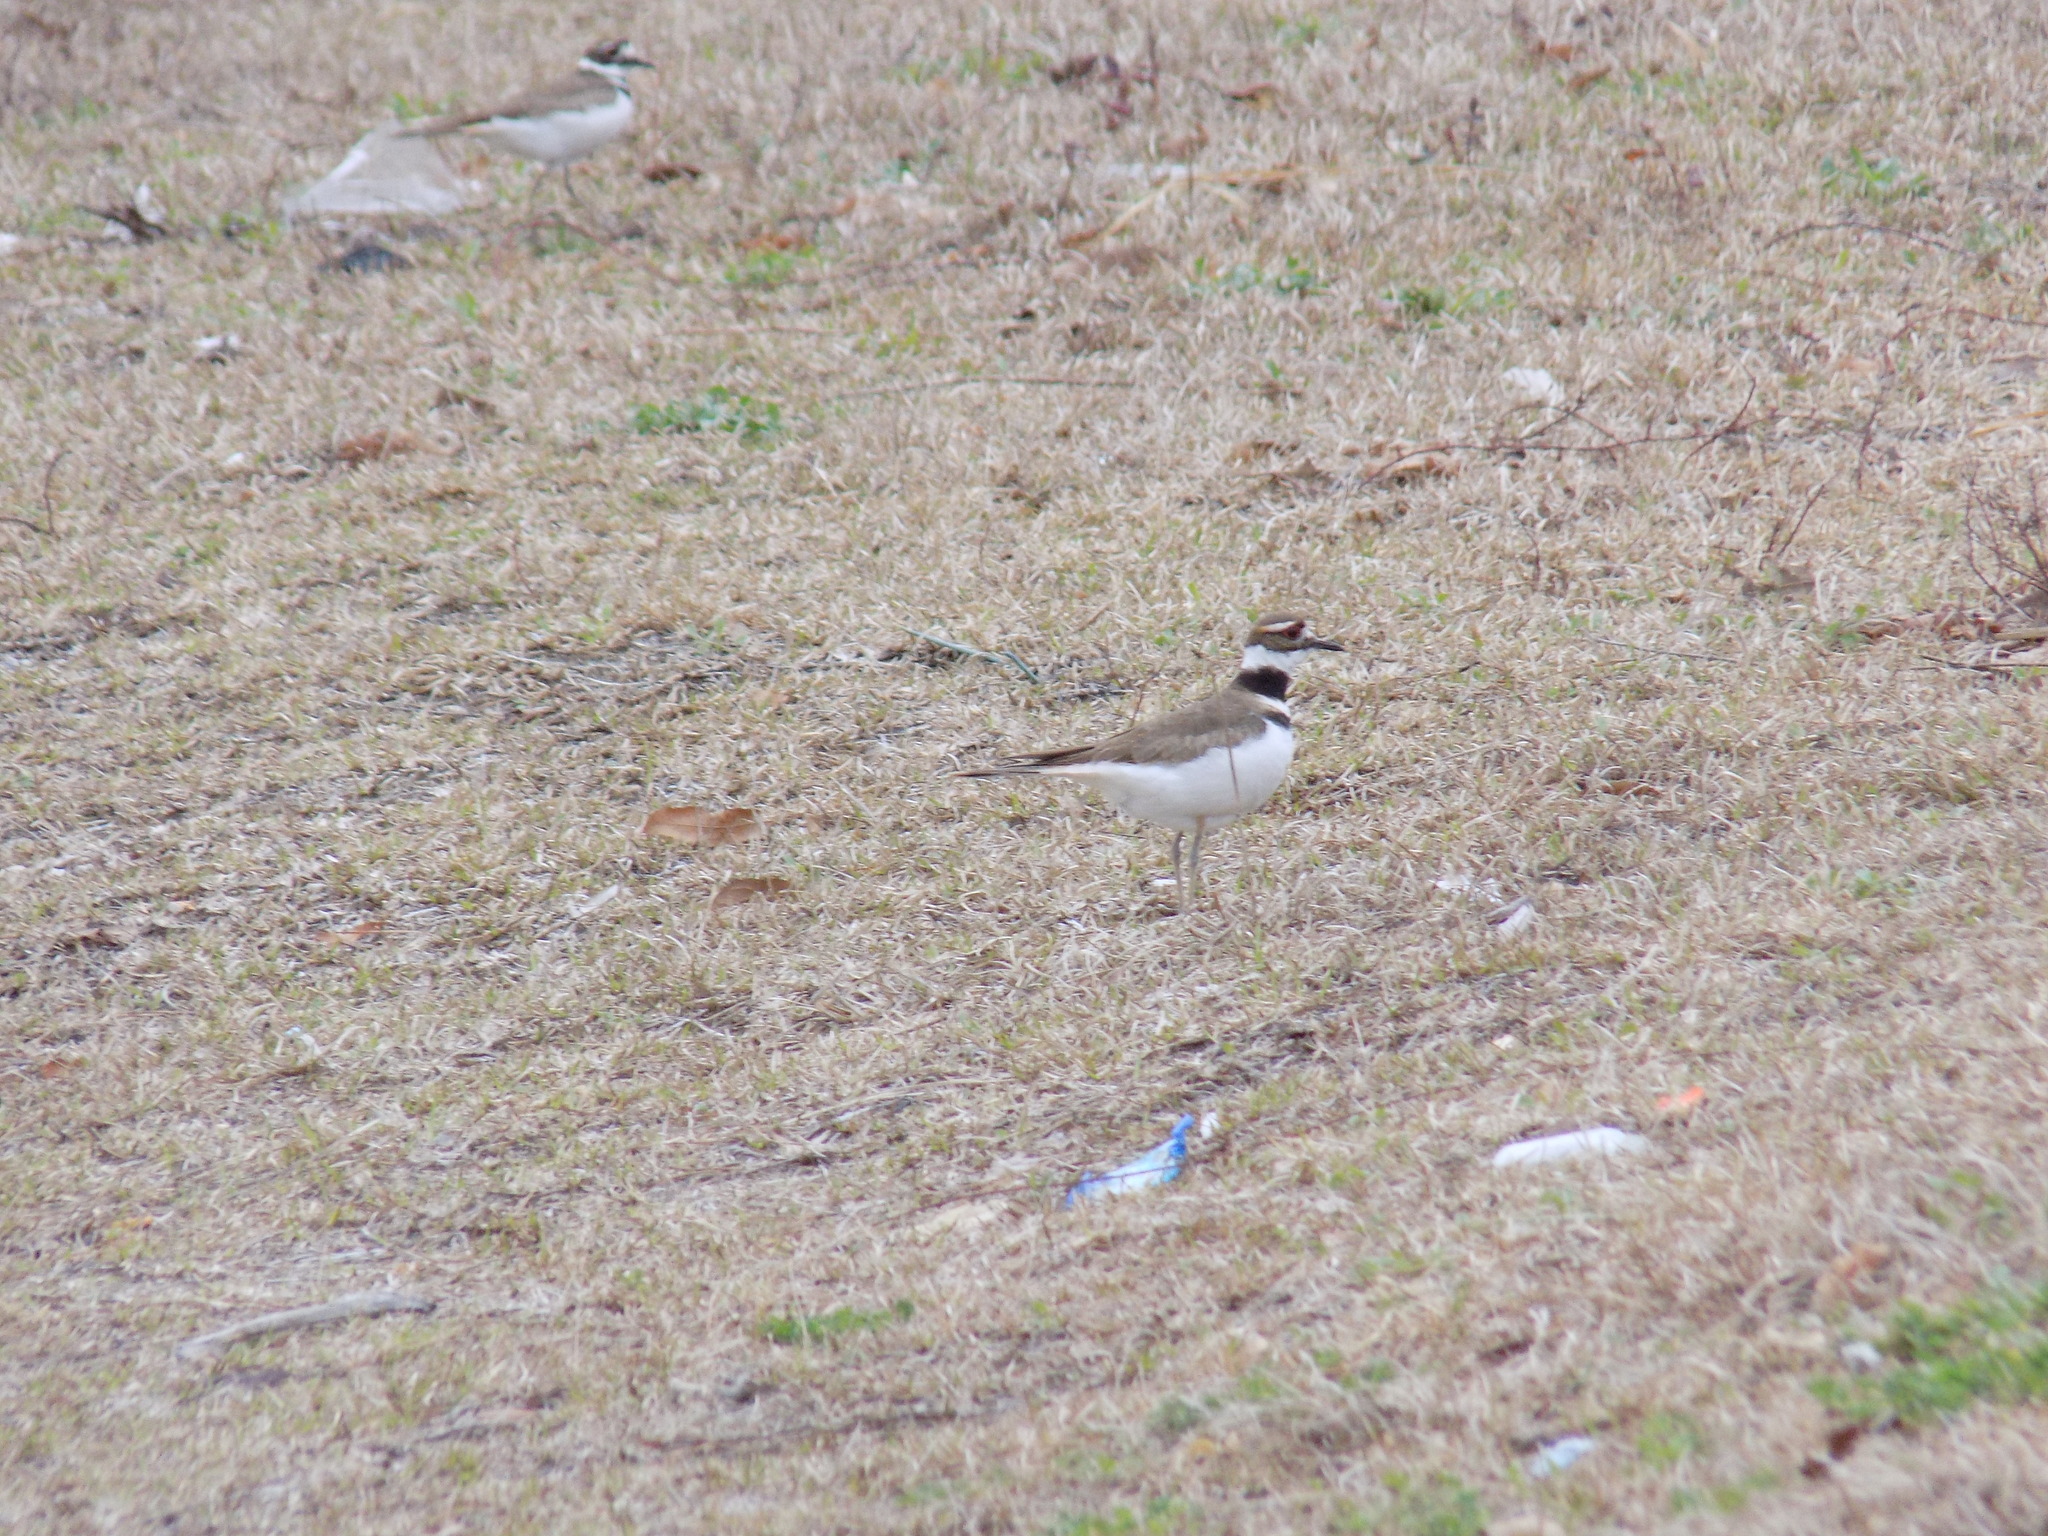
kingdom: Animalia
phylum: Chordata
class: Aves
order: Charadriiformes
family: Charadriidae
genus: Charadrius
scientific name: Charadrius vociferus
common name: Killdeer
